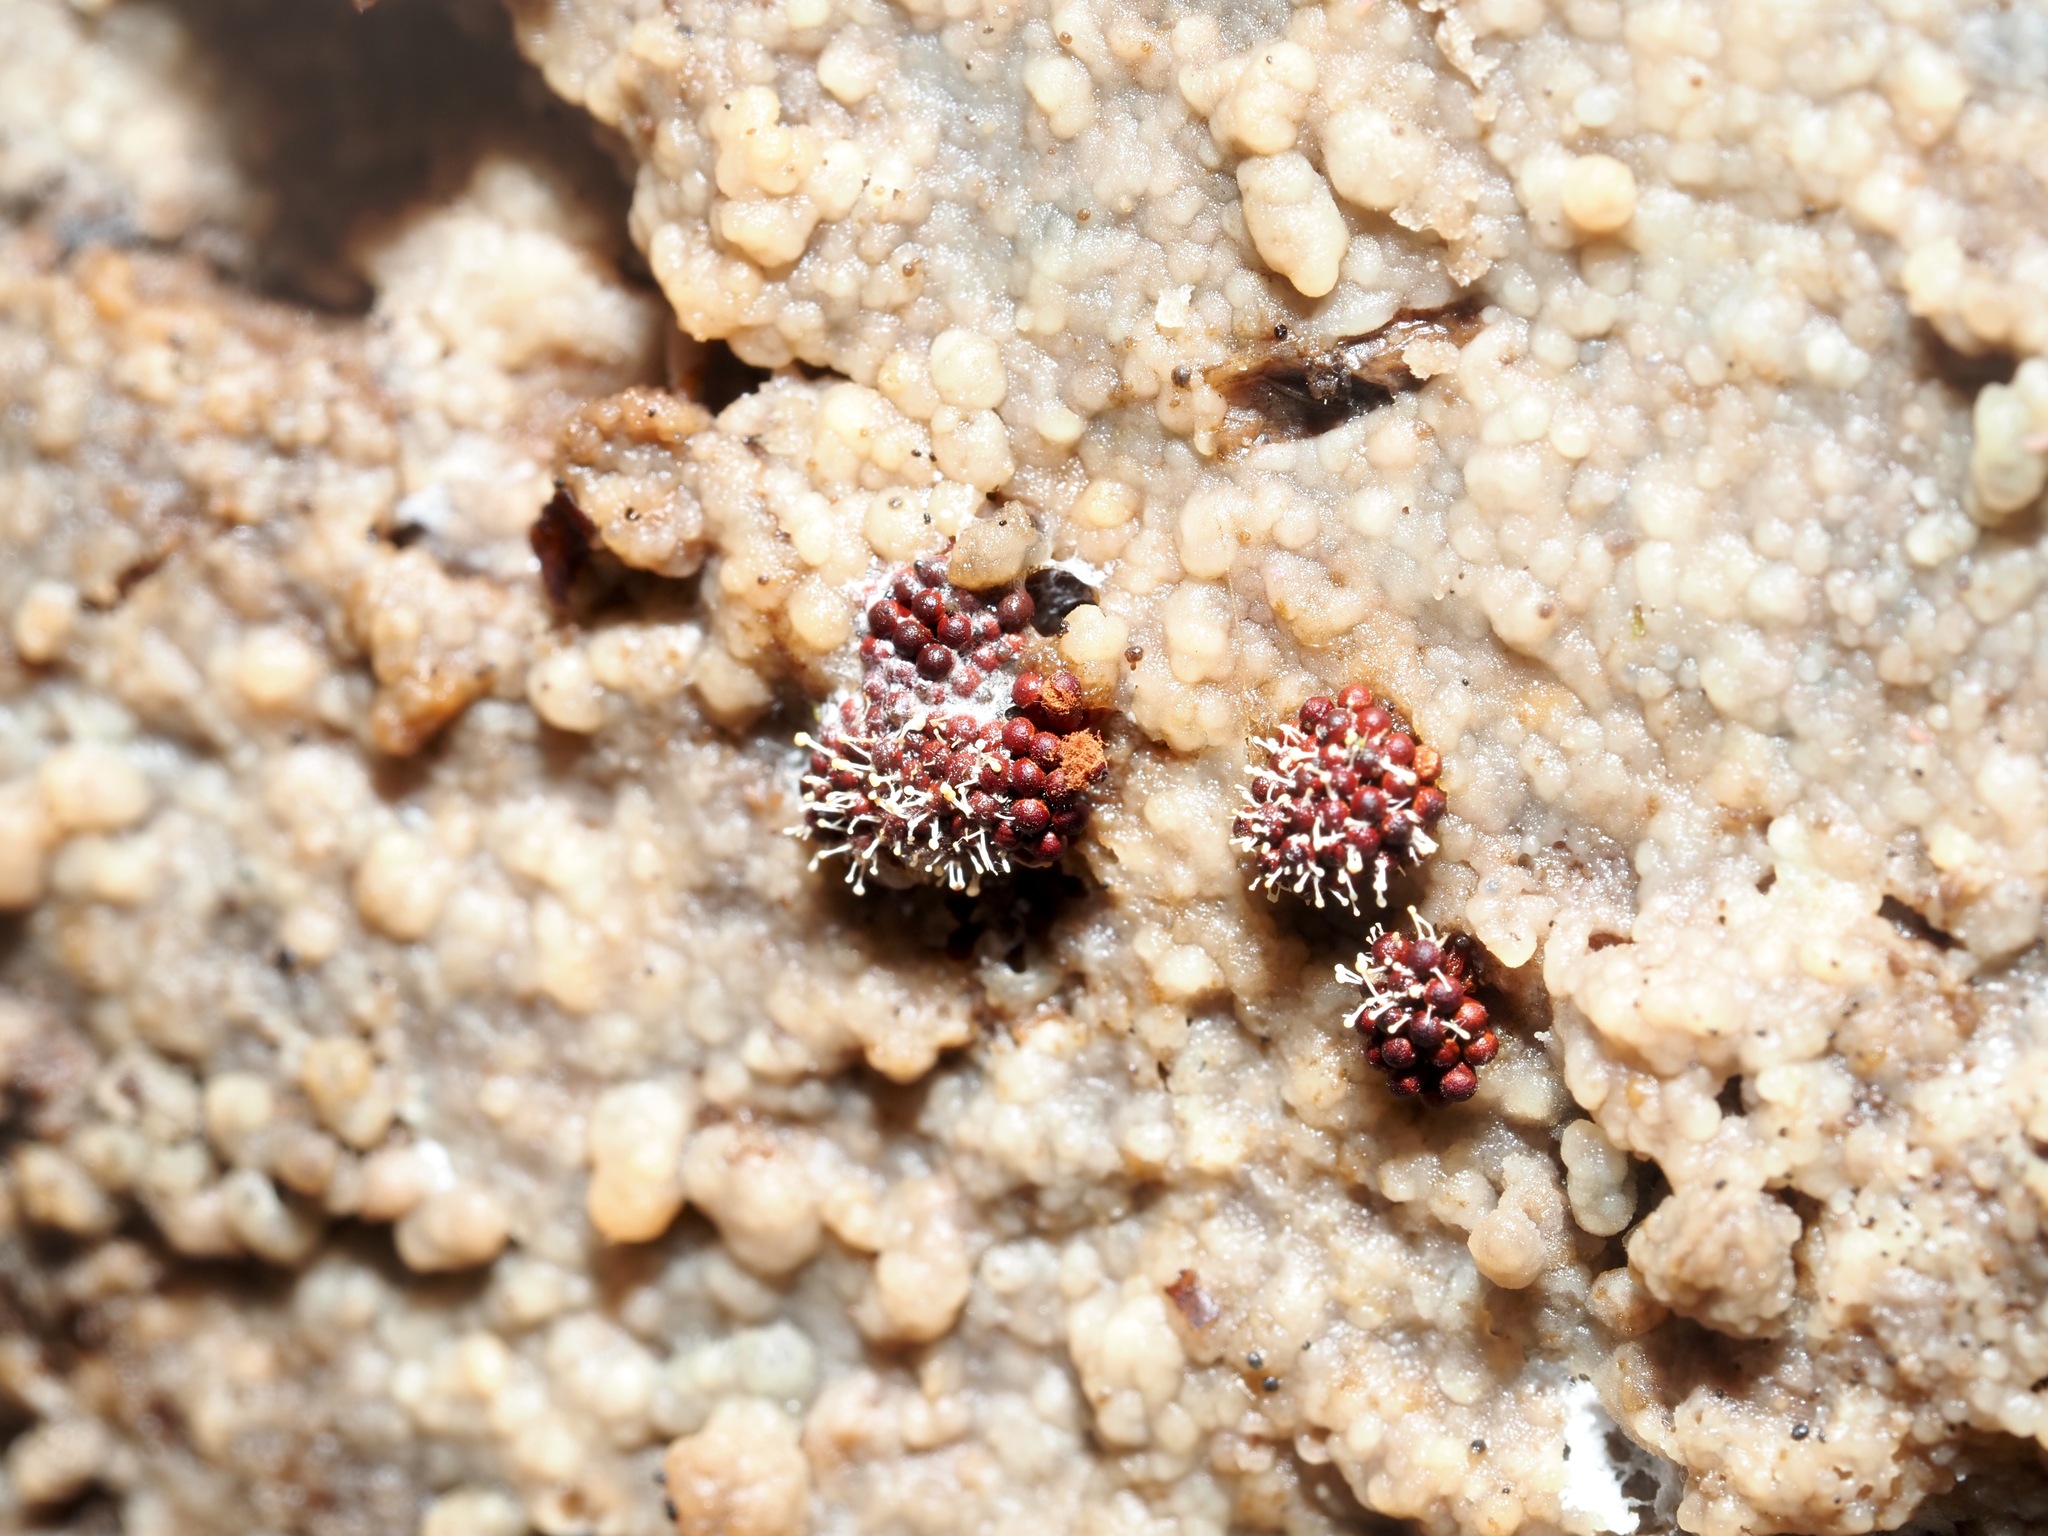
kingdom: Protozoa
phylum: Mycetozoa
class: Myxomycetes
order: Trichiales
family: Trichiaceae
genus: Metatrichia
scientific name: Metatrichia vesparia
